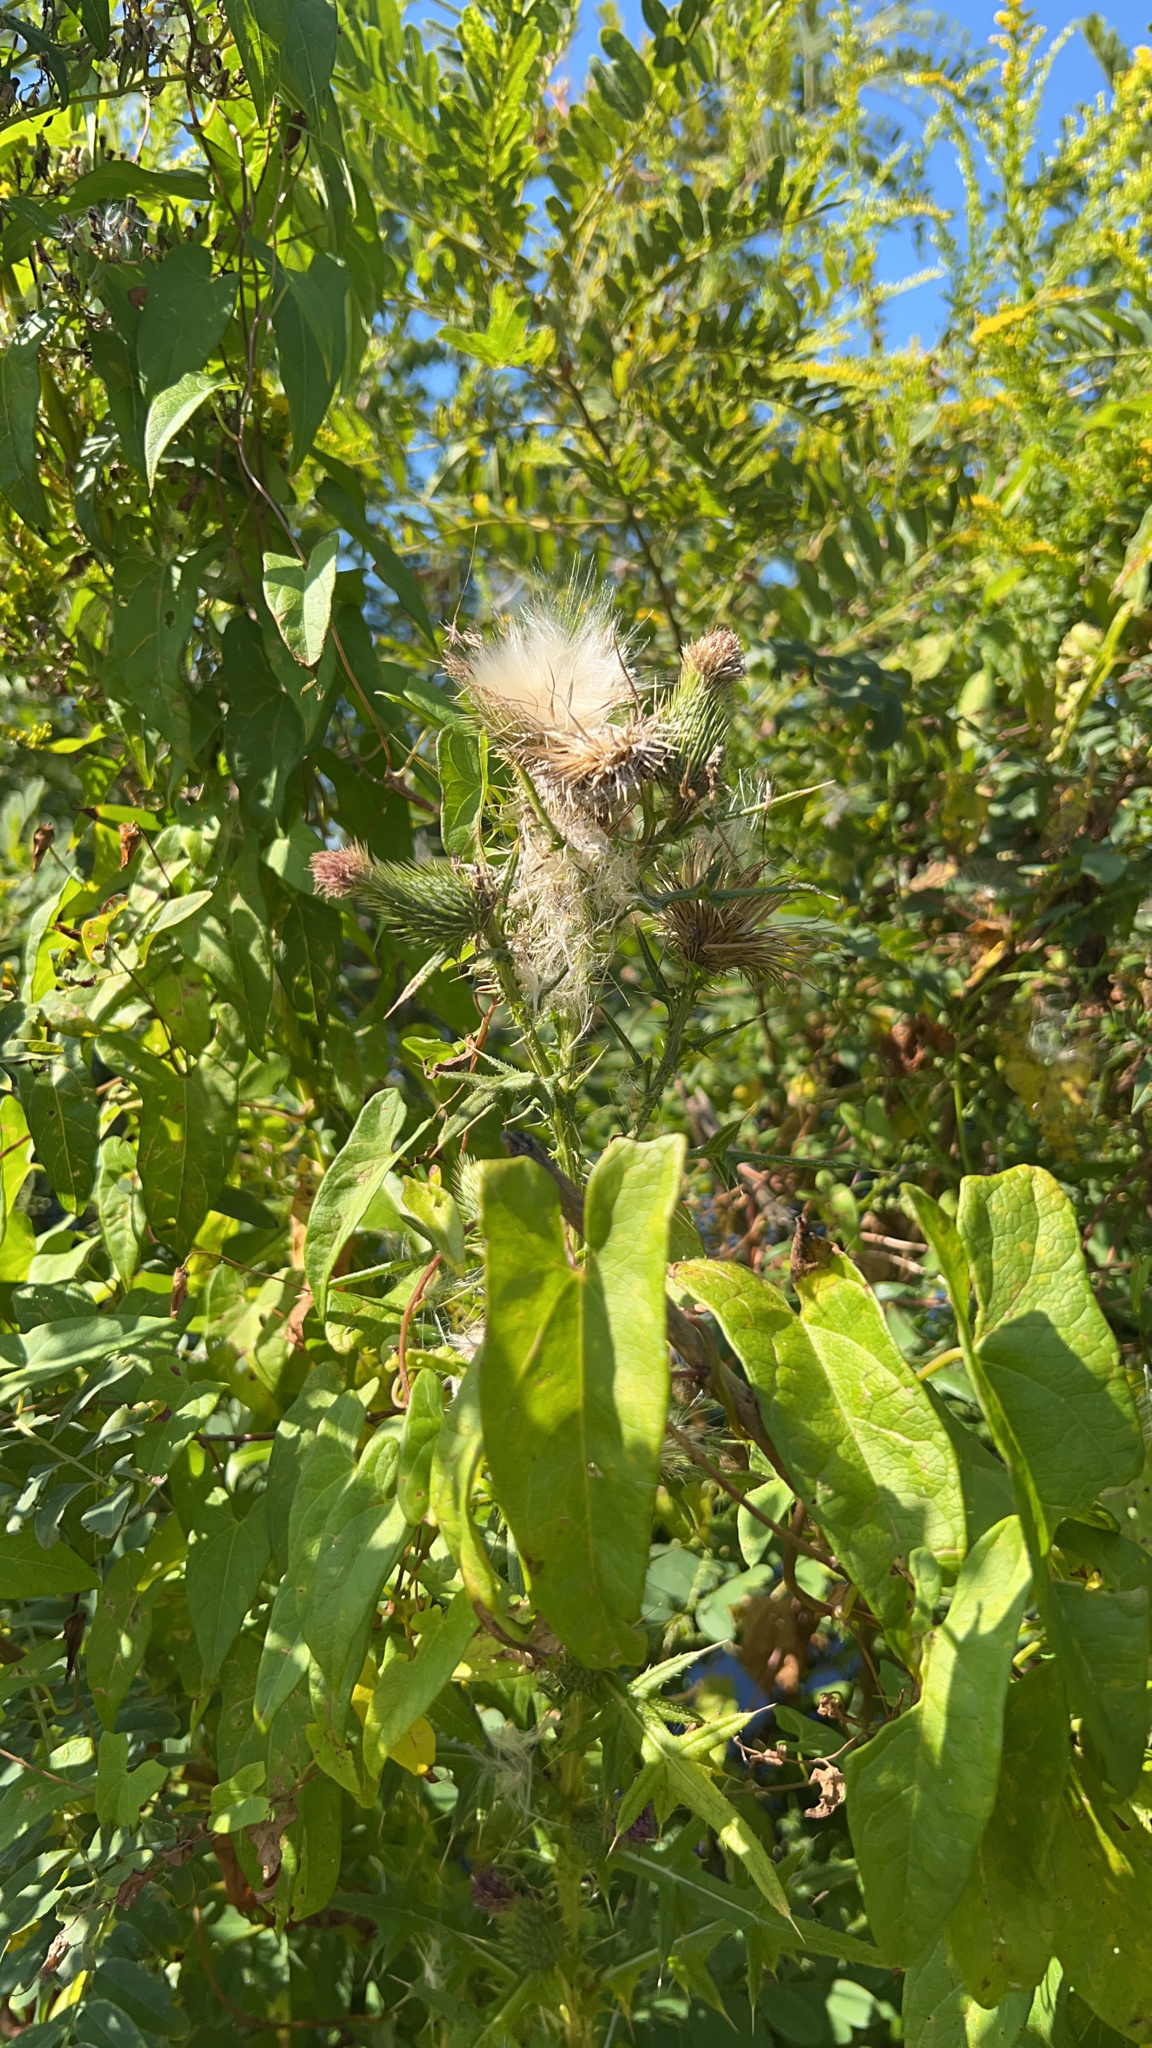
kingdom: Plantae
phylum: Tracheophyta
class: Magnoliopsida
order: Asterales
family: Asteraceae
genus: Cirsium
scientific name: Cirsium vulgare
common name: Bull thistle
